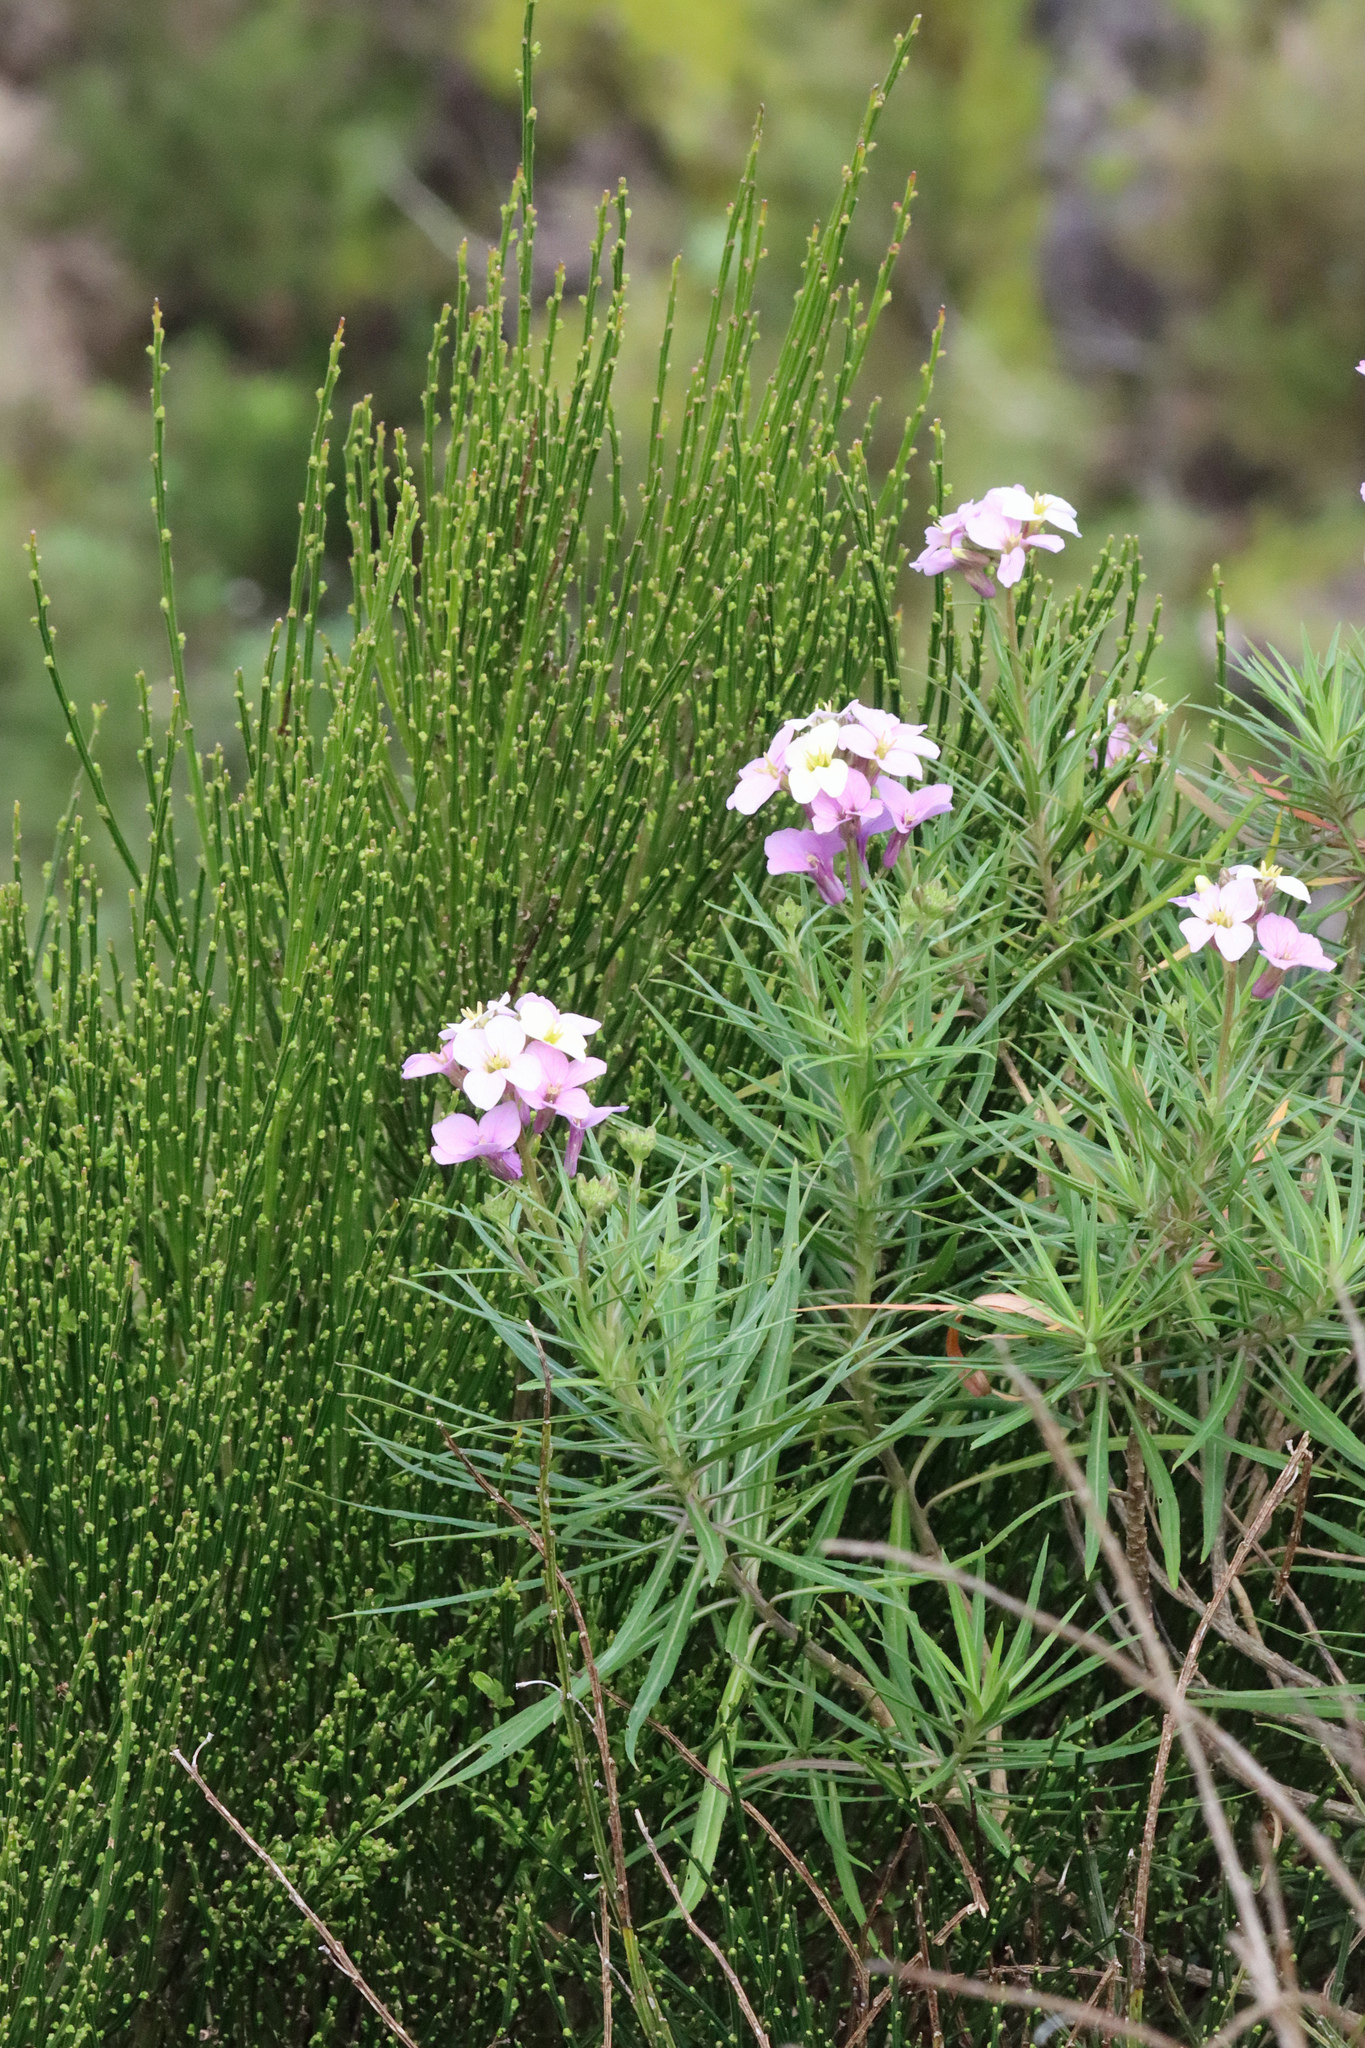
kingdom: Plantae
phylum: Tracheophyta
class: Magnoliopsida
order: Brassicales
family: Brassicaceae
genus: Erysimum
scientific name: Erysimum bicolor
